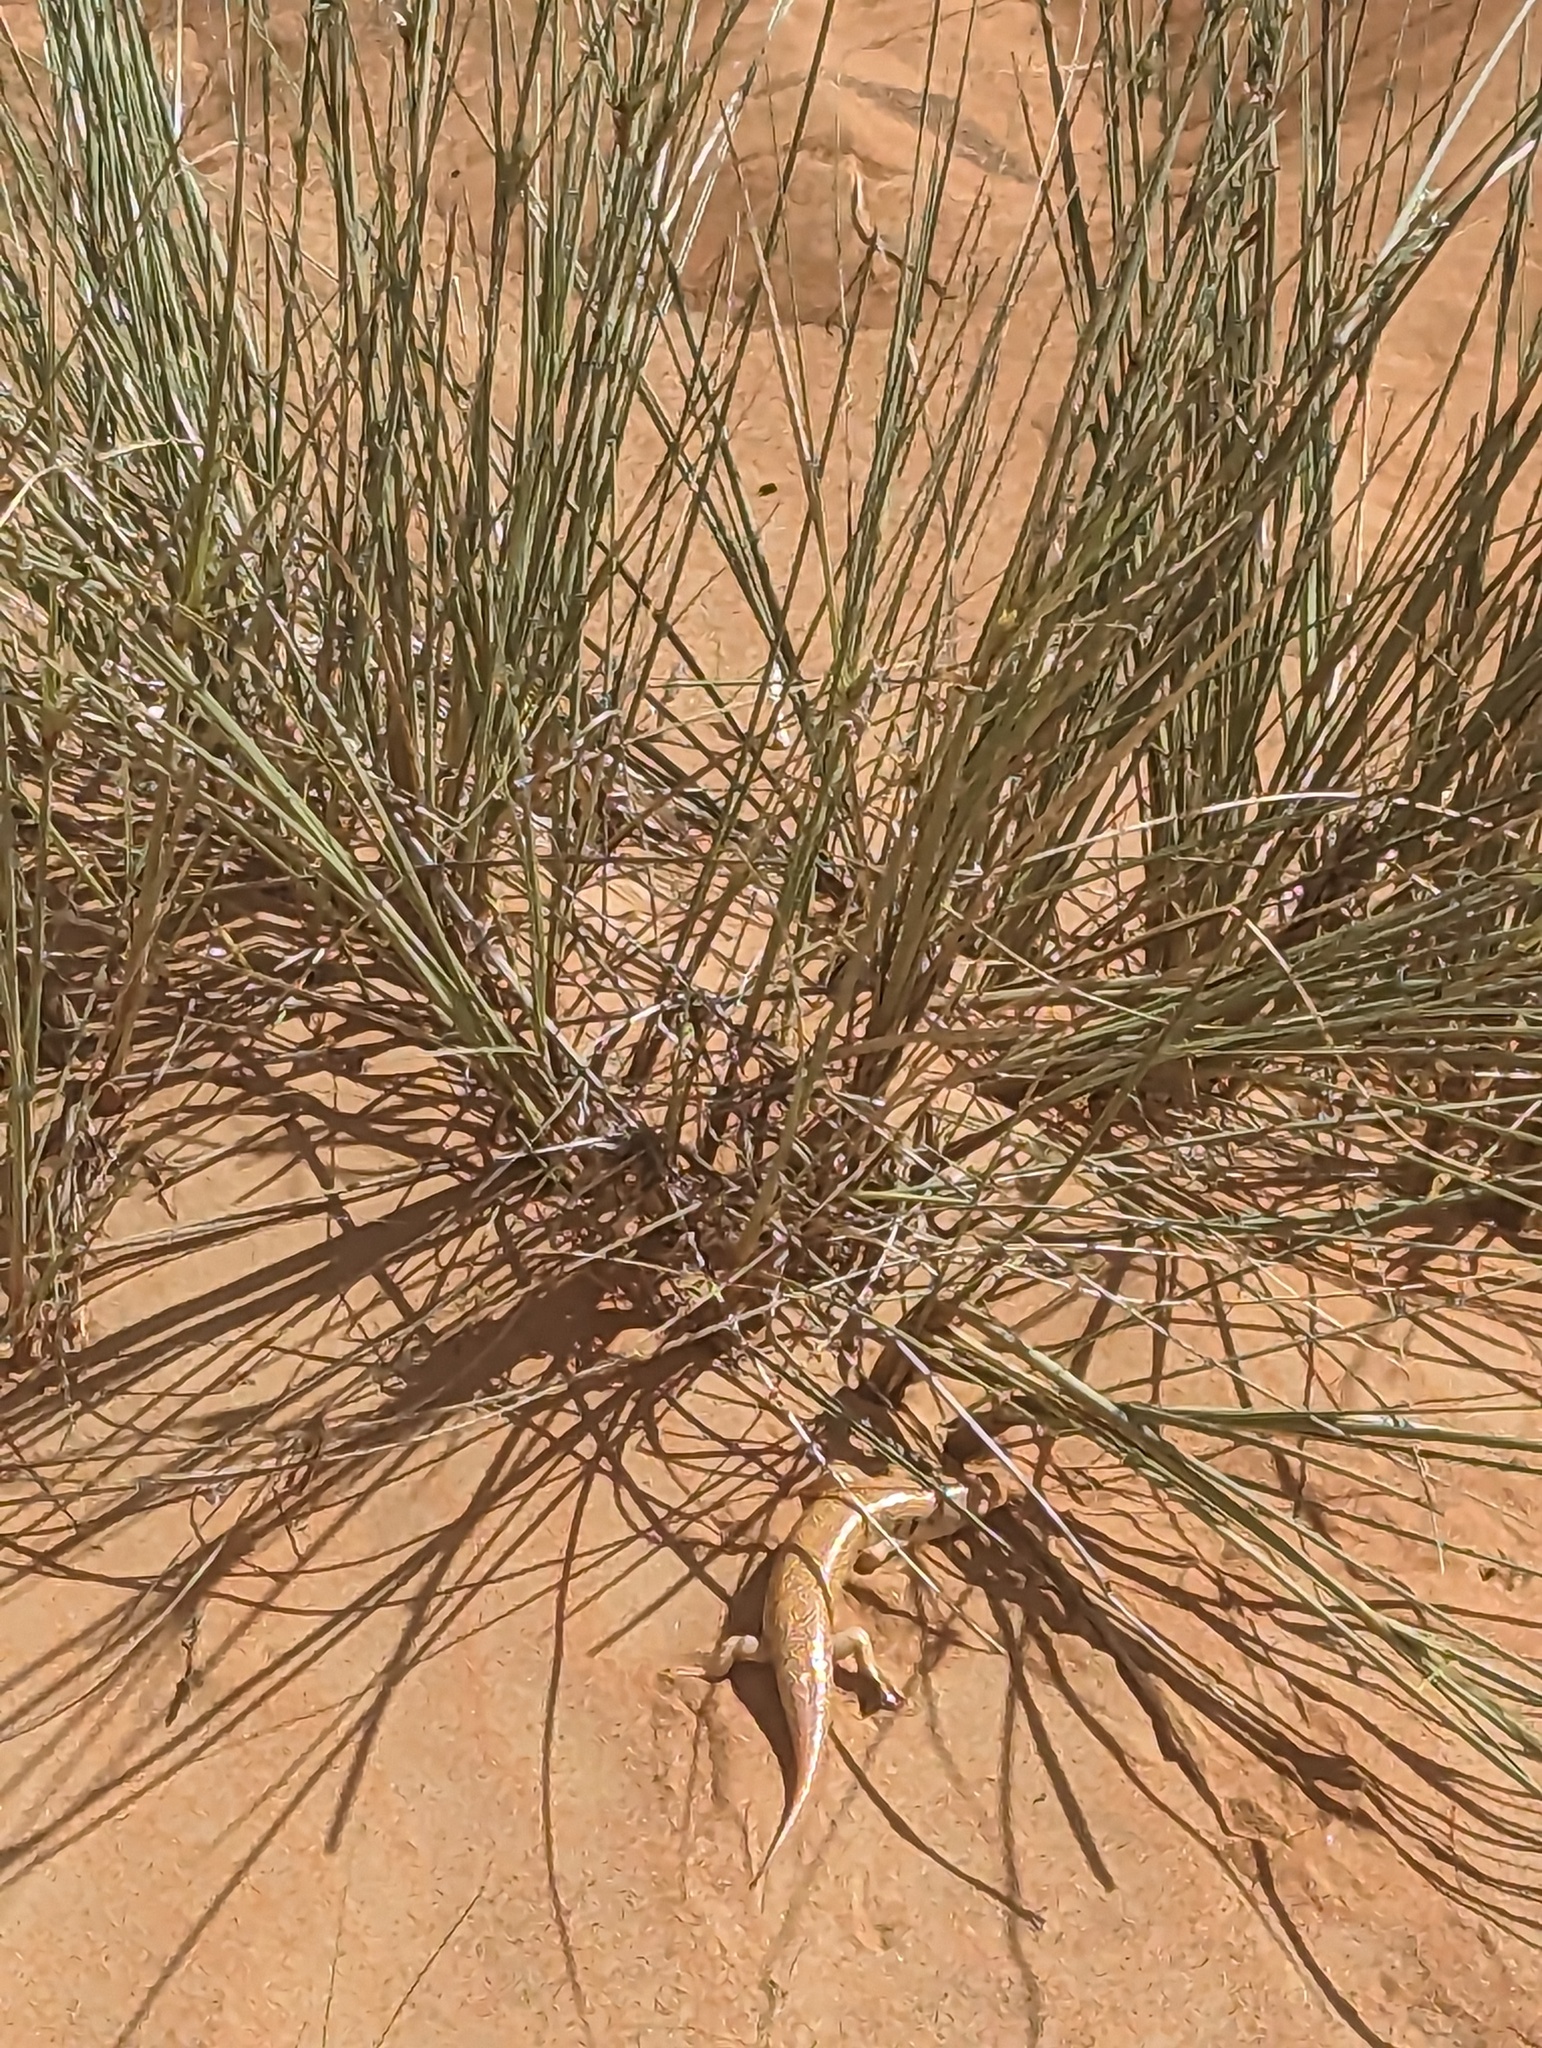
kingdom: Animalia
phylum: Chordata
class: Squamata
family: Scincidae
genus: Scincus
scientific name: Scincus mitranus
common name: Arabian sand skink
